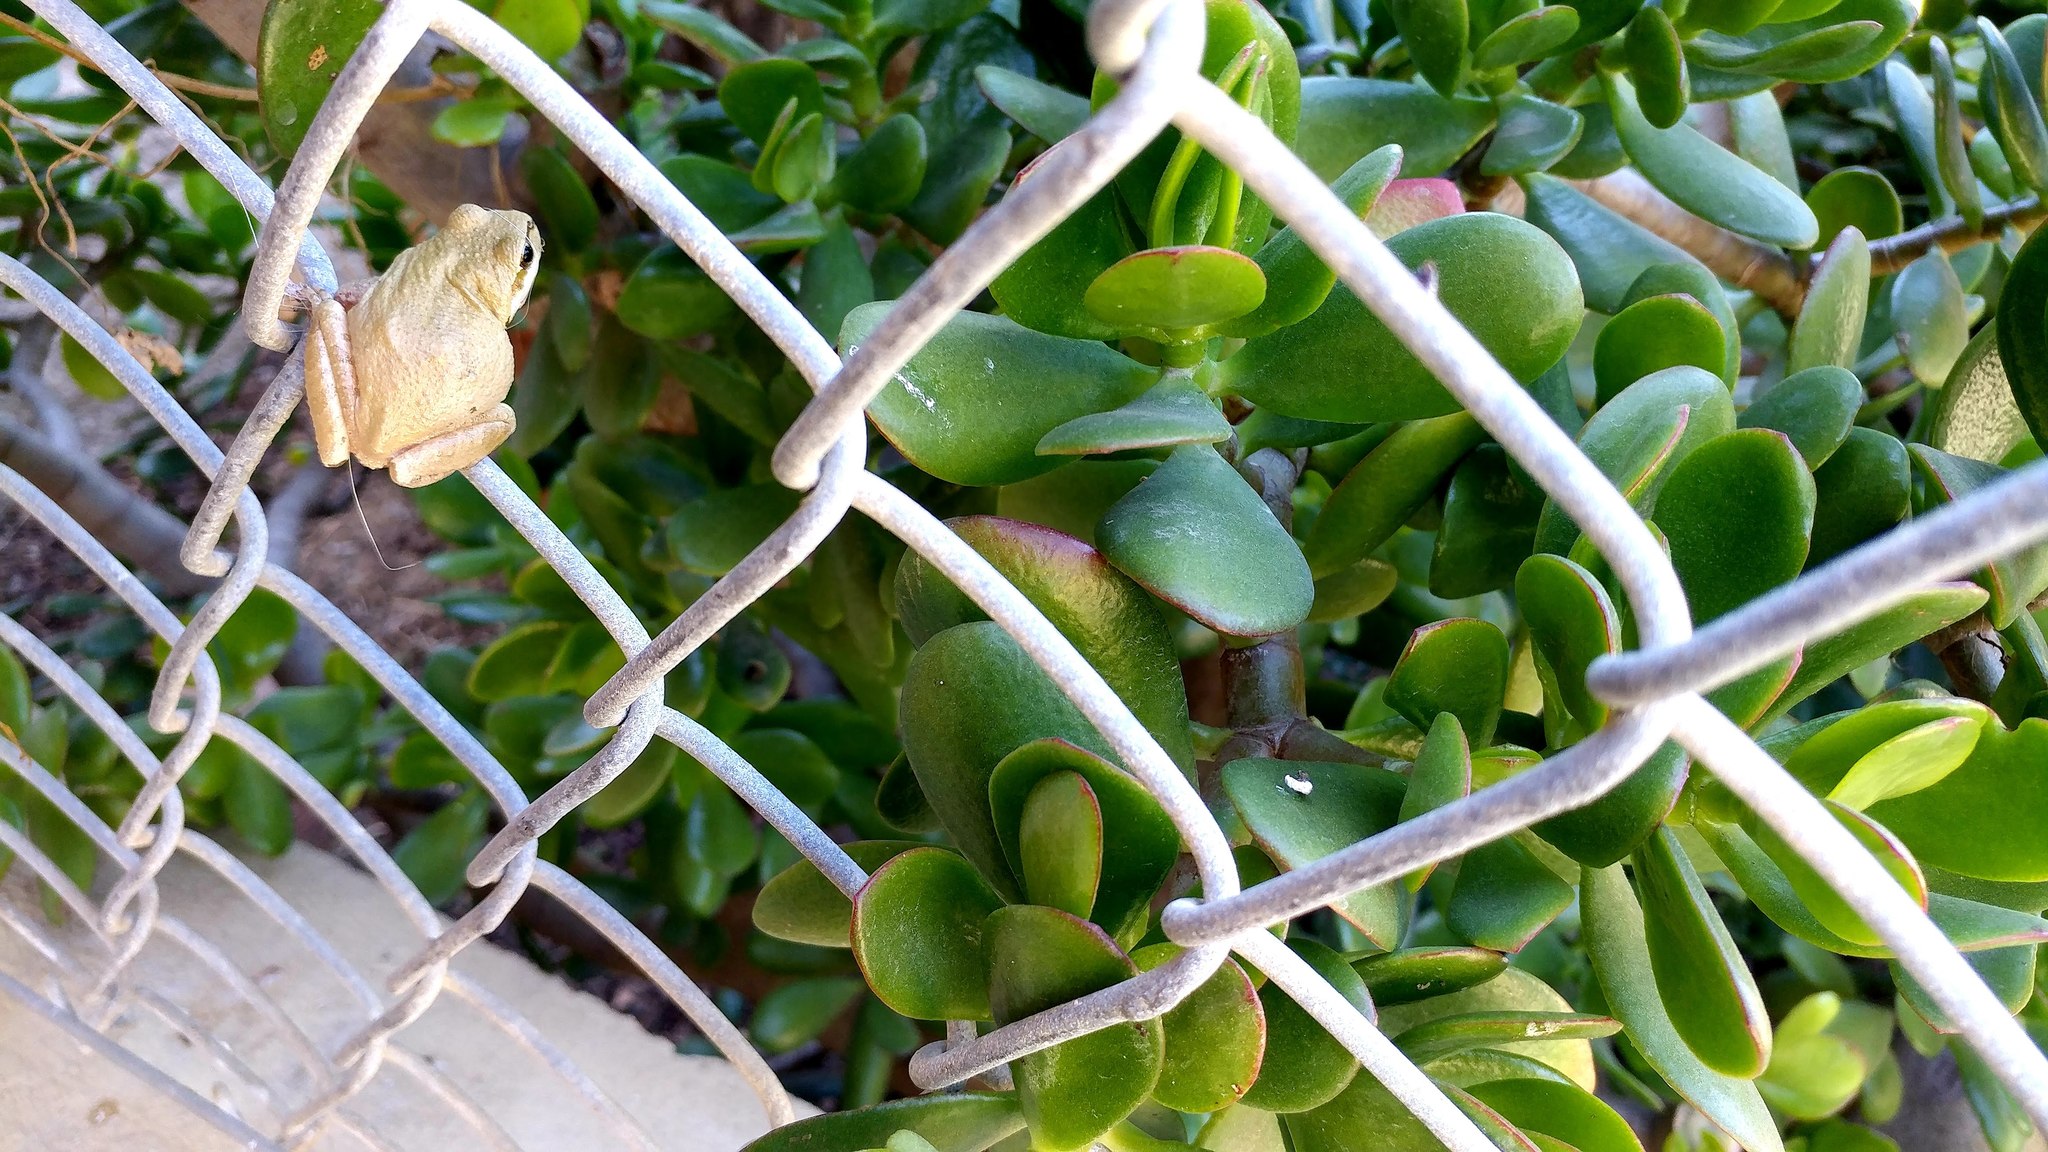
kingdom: Animalia
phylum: Chordata
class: Amphibia
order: Anura
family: Hylidae
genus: Pseudacris
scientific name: Pseudacris regilla
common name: Pacific chorus frog
